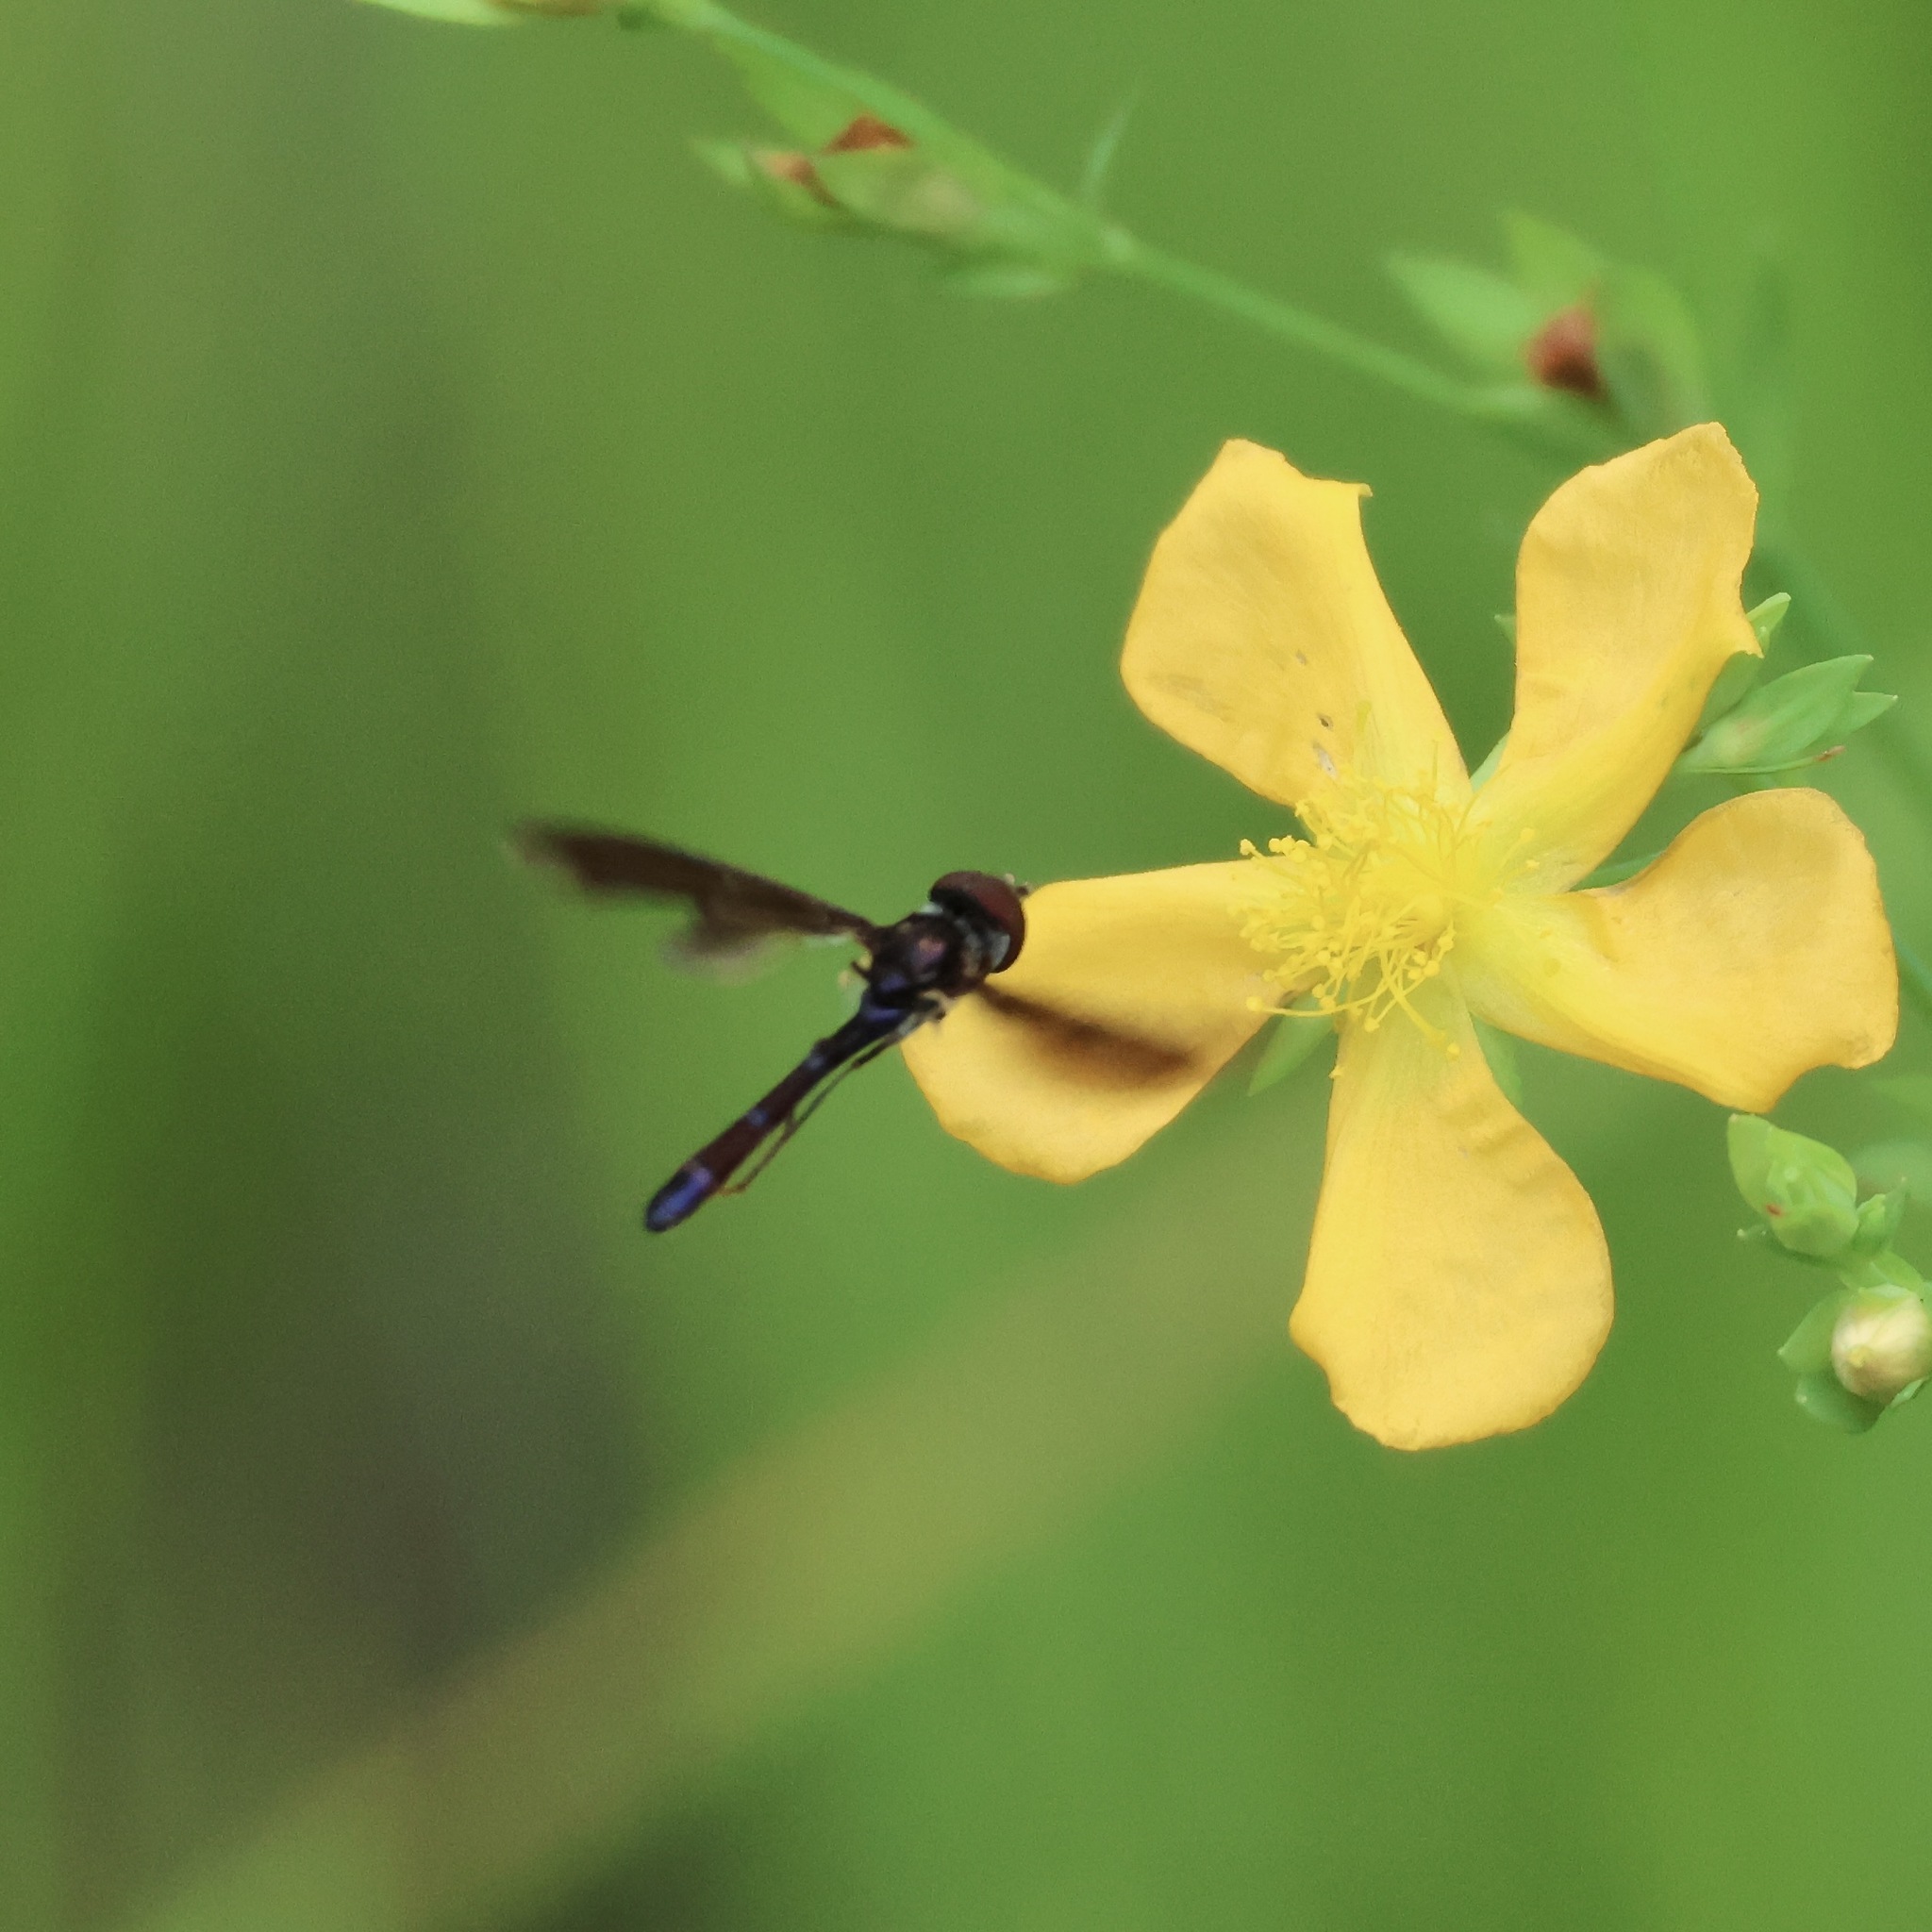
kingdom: Animalia
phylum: Arthropoda
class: Insecta
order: Diptera
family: Syrphidae
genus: Ocyptamus
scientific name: Ocyptamus fuscipennis
